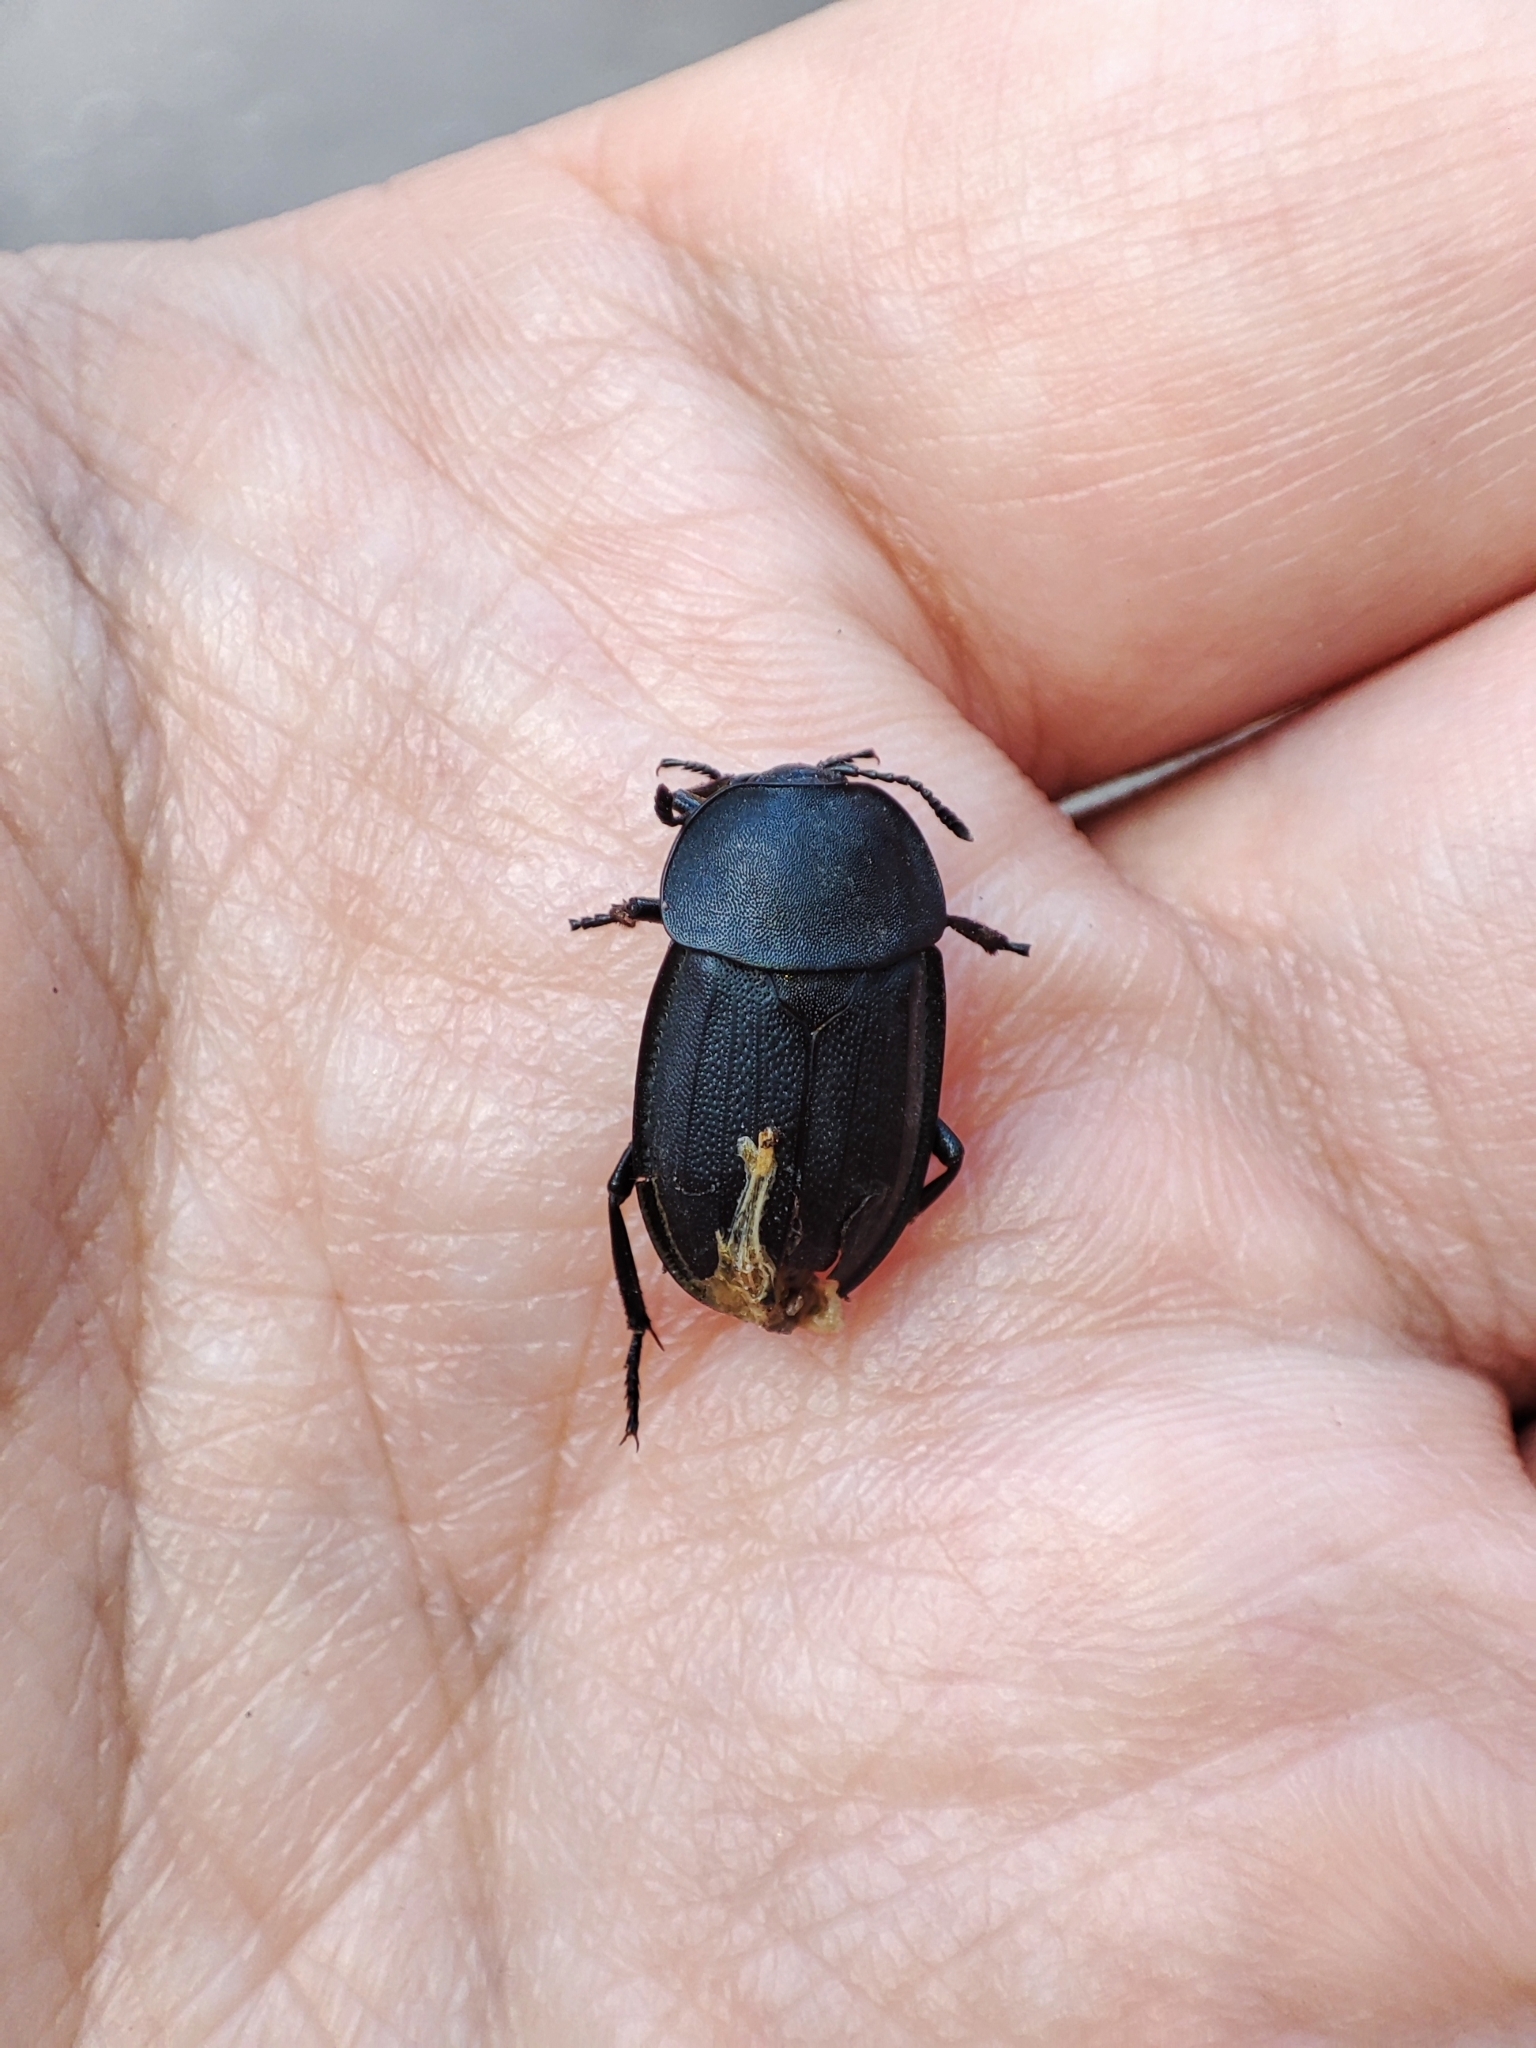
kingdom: Animalia
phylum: Arthropoda
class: Insecta
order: Coleoptera
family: Staphylinidae
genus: Silpha
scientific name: Silpha obscura
